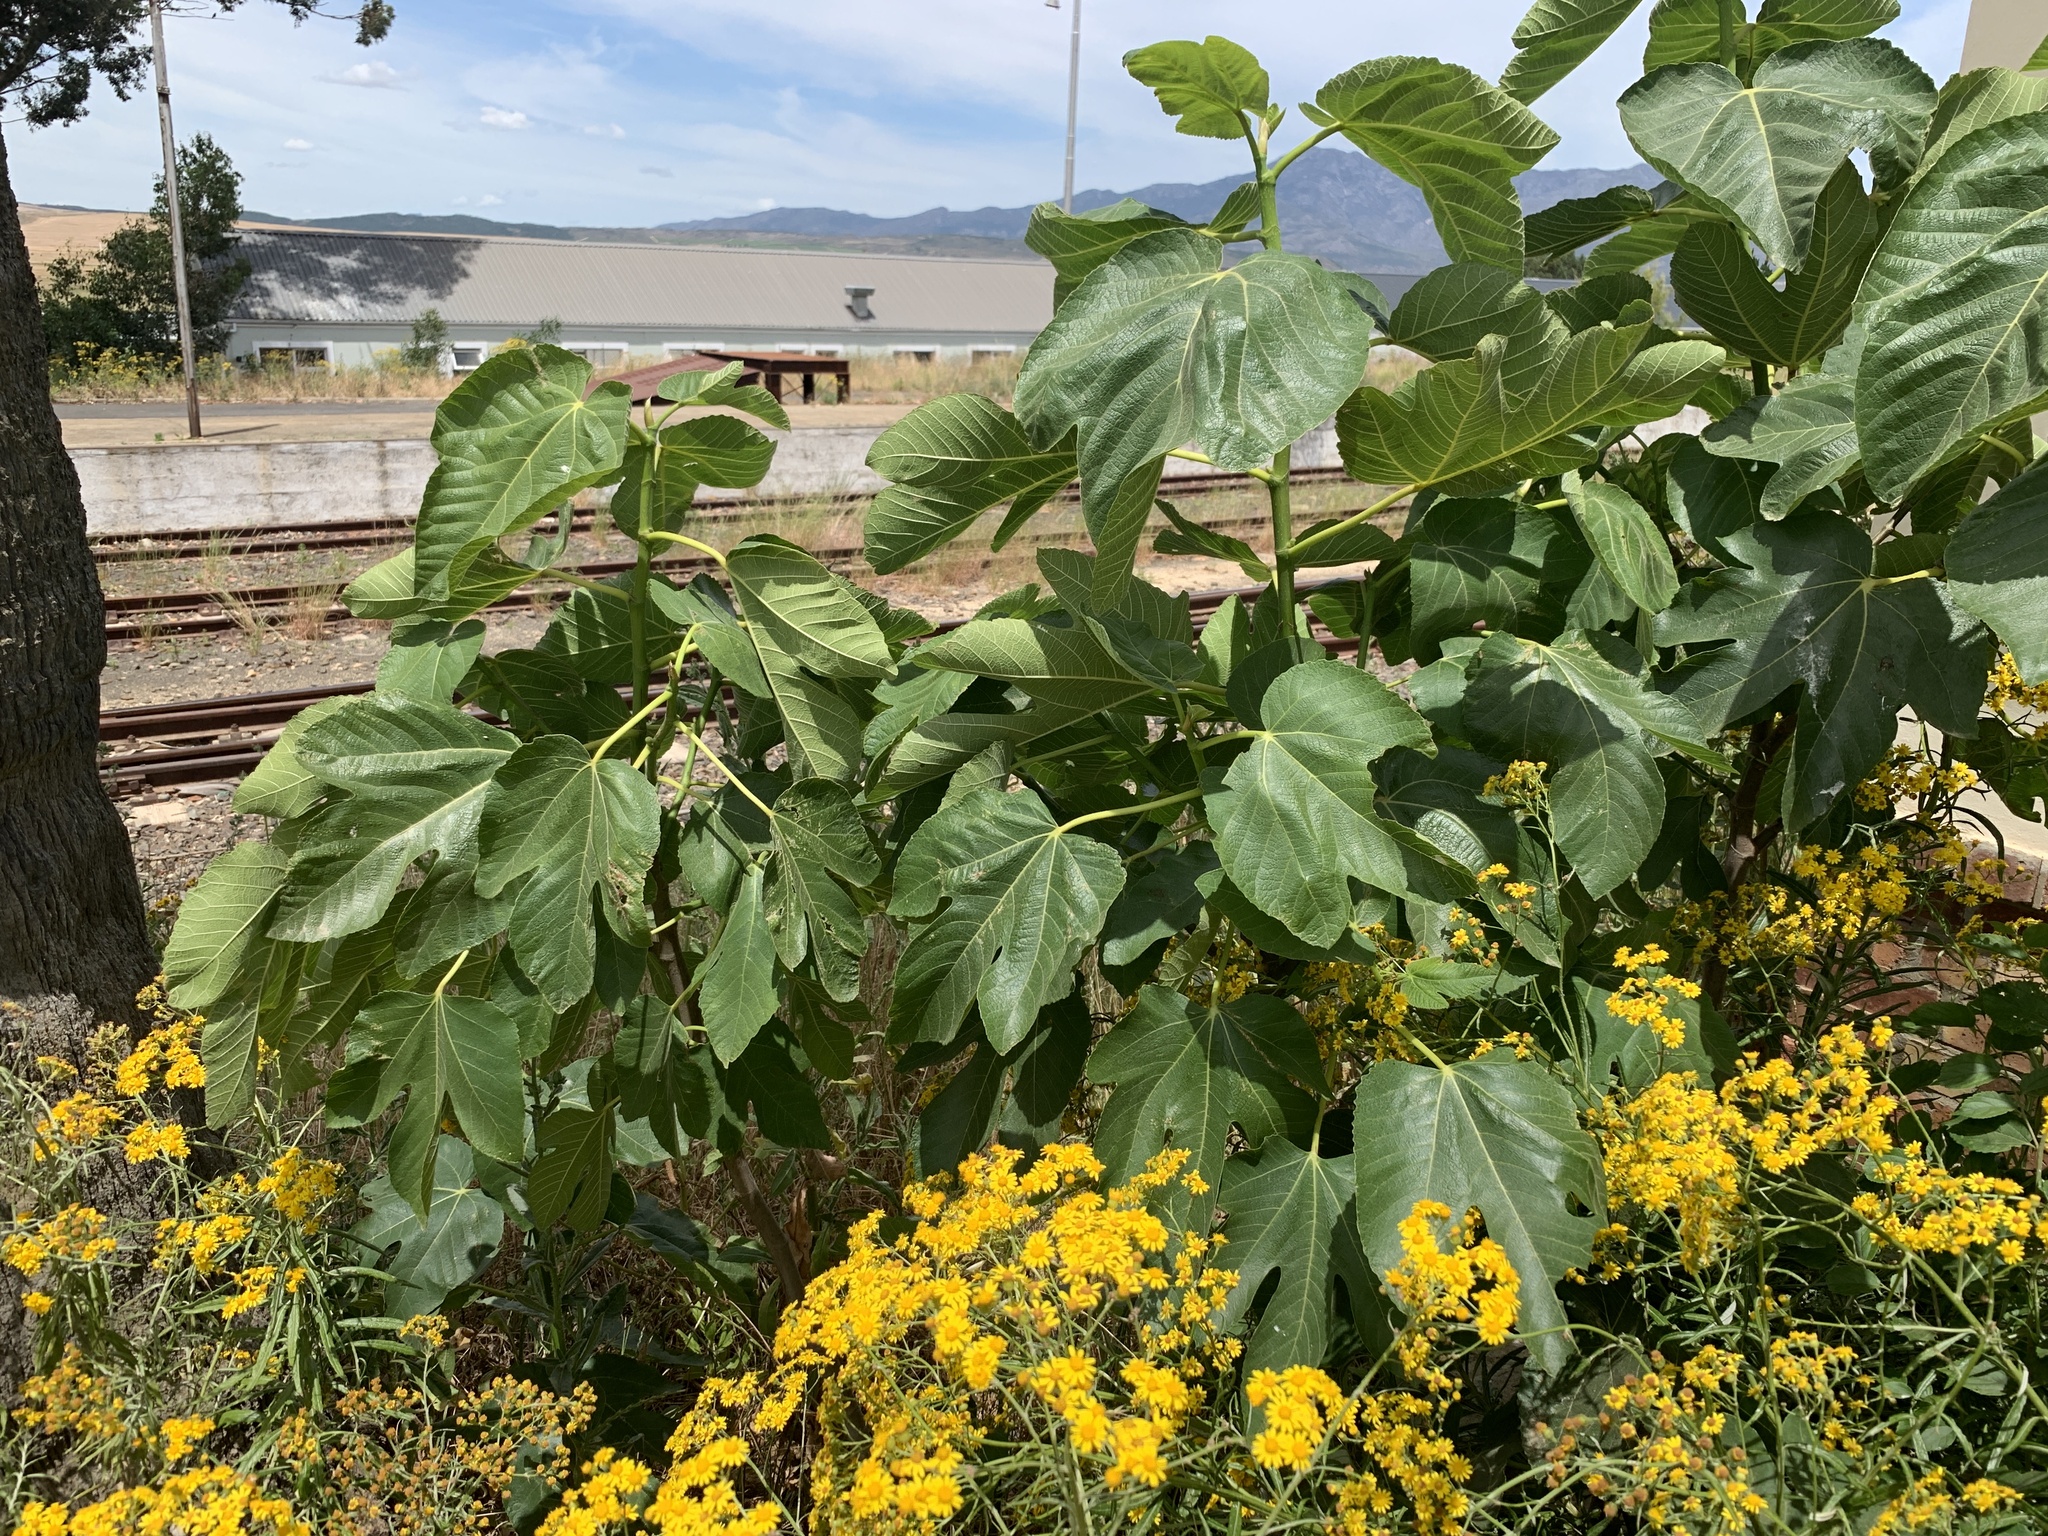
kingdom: Plantae
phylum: Tracheophyta
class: Magnoliopsida
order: Rosales
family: Moraceae
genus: Ficus
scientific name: Ficus carica
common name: Fig
